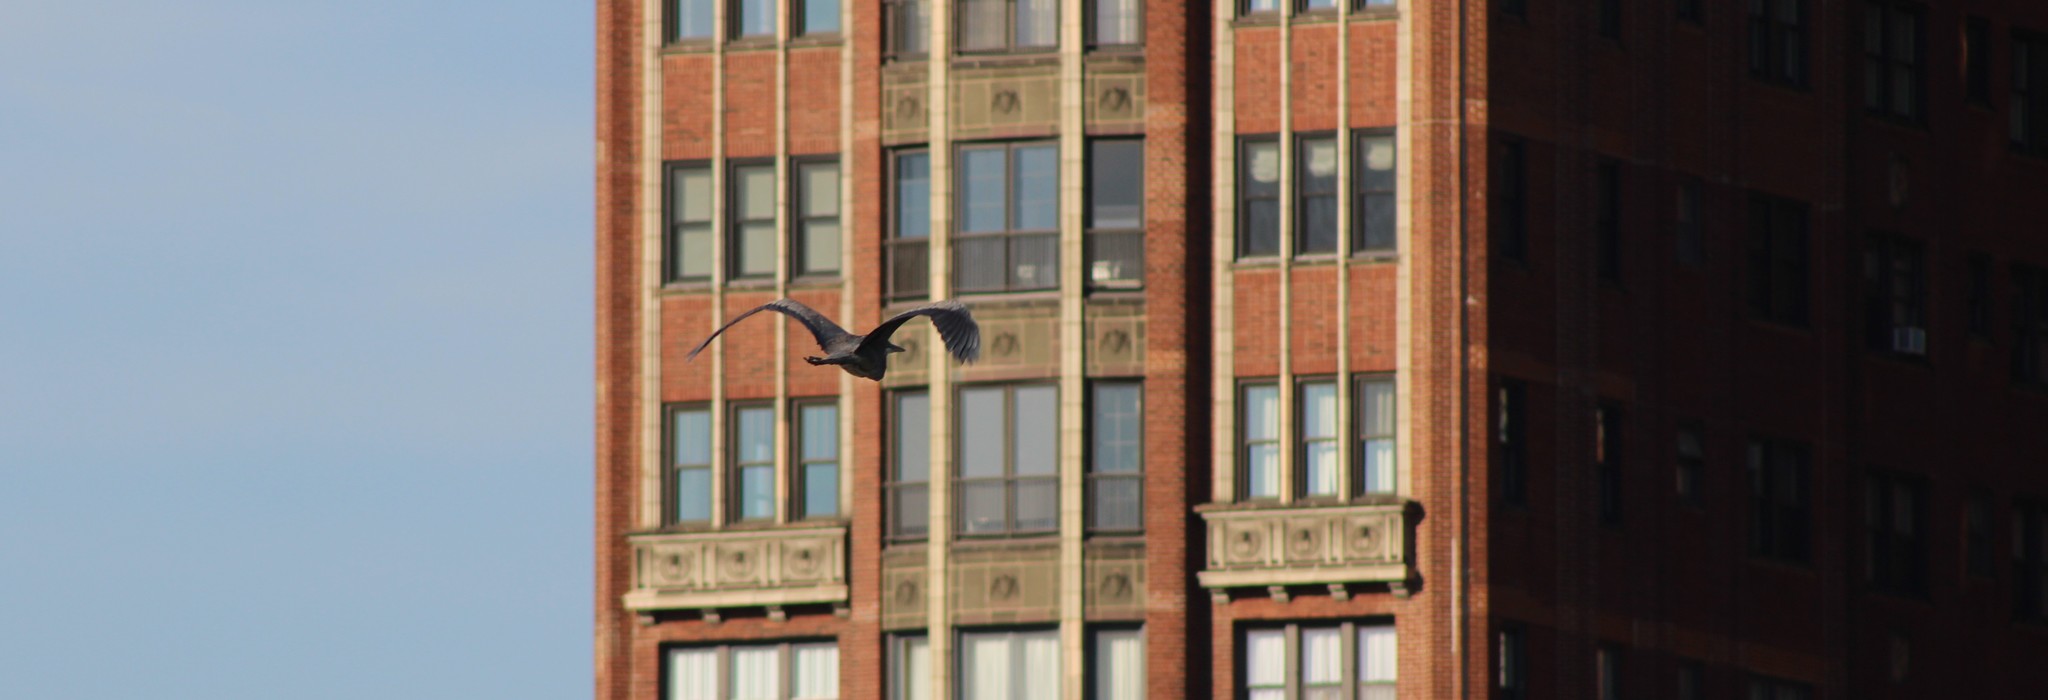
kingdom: Animalia
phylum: Chordata
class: Aves
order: Pelecaniformes
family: Ardeidae
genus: Ardea
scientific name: Ardea herodias
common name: Great blue heron
